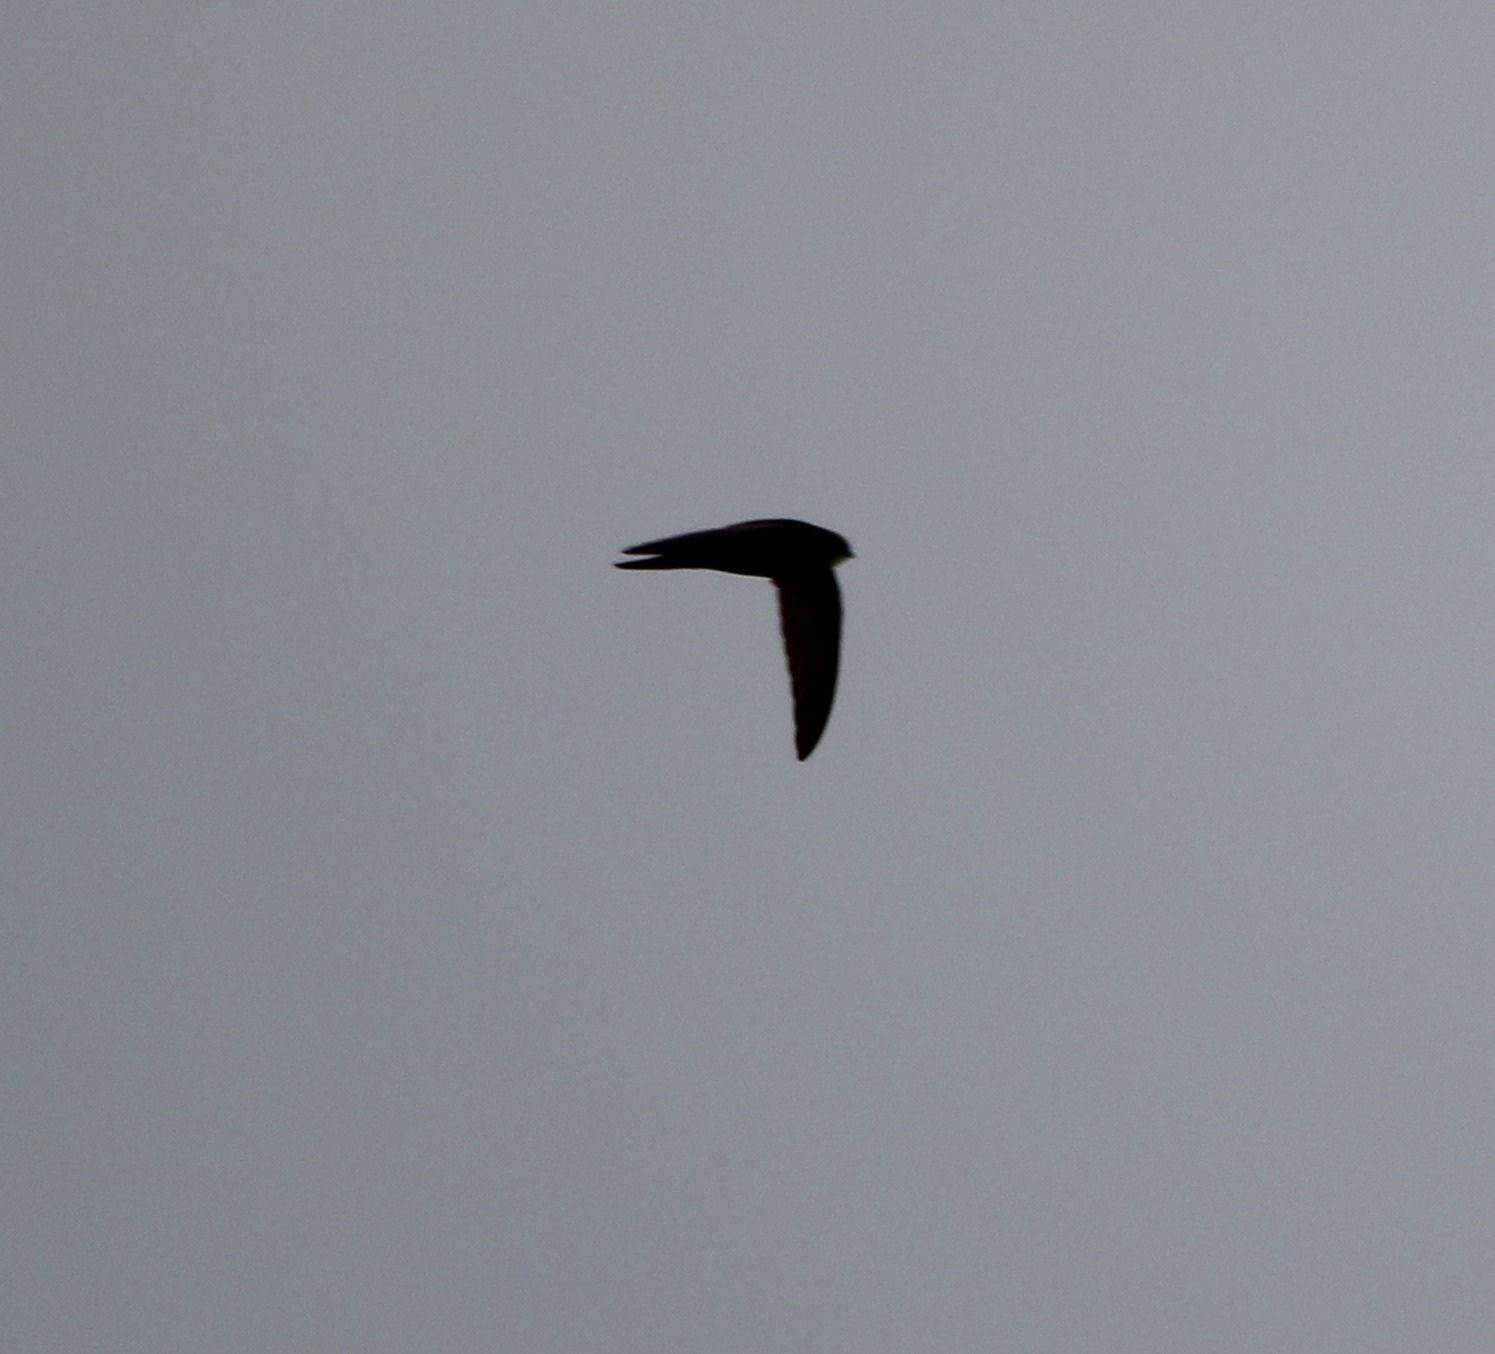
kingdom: Animalia
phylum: Chordata
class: Aves
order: Apodiformes
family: Apodidae
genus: Apus
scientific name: Apus apus
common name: Common swift
